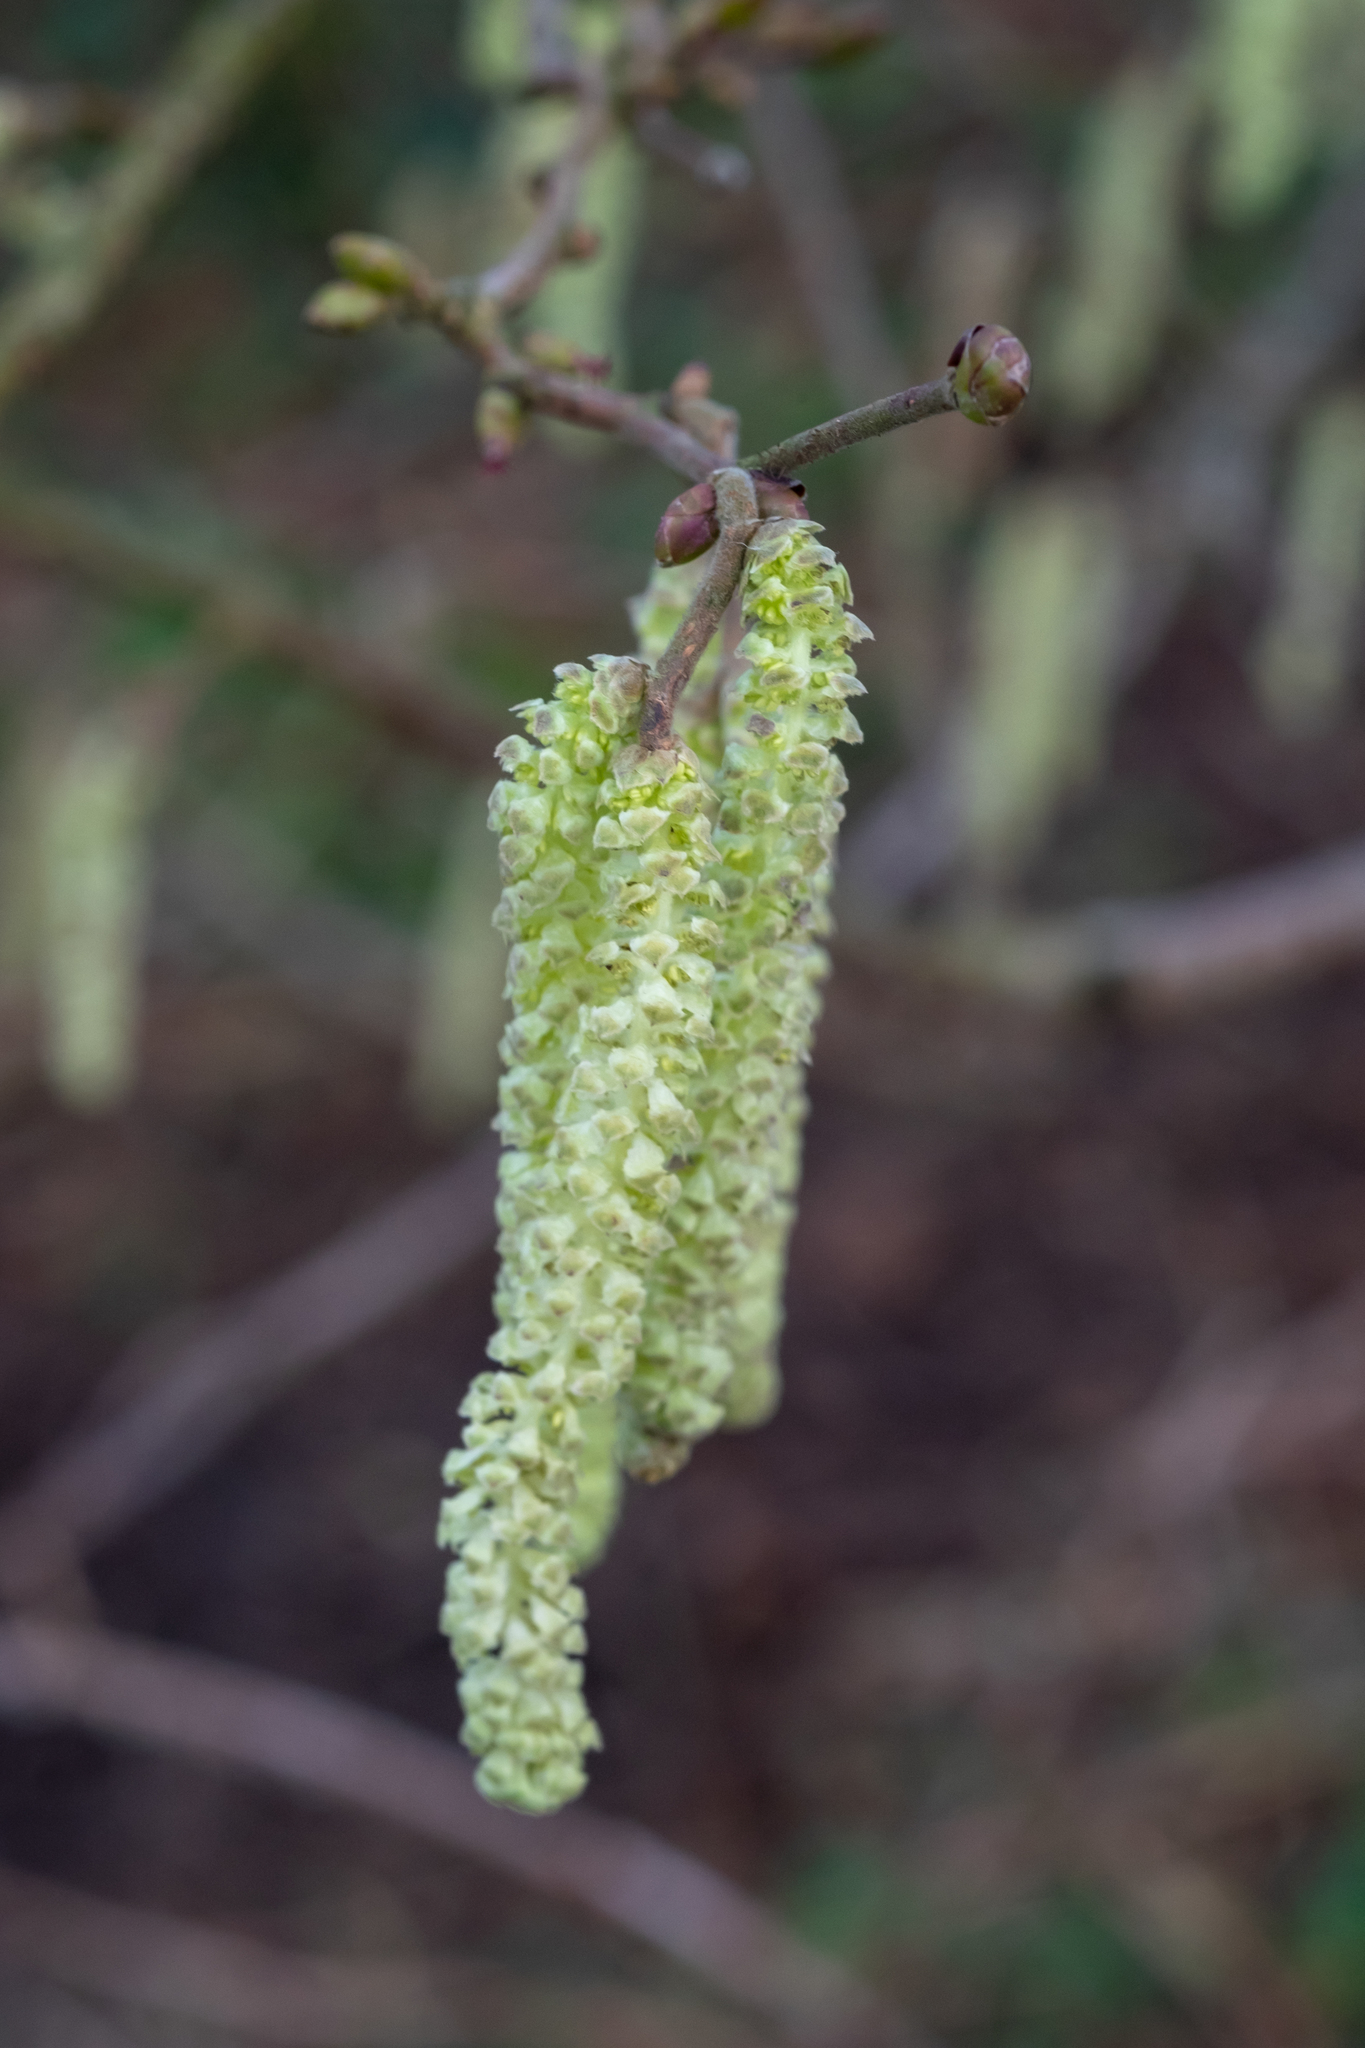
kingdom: Plantae
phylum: Tracheophyta
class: Magnoliopsida
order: Fagales
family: Betulaceae
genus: Corylus
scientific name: Corylus avellana
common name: European hazel
